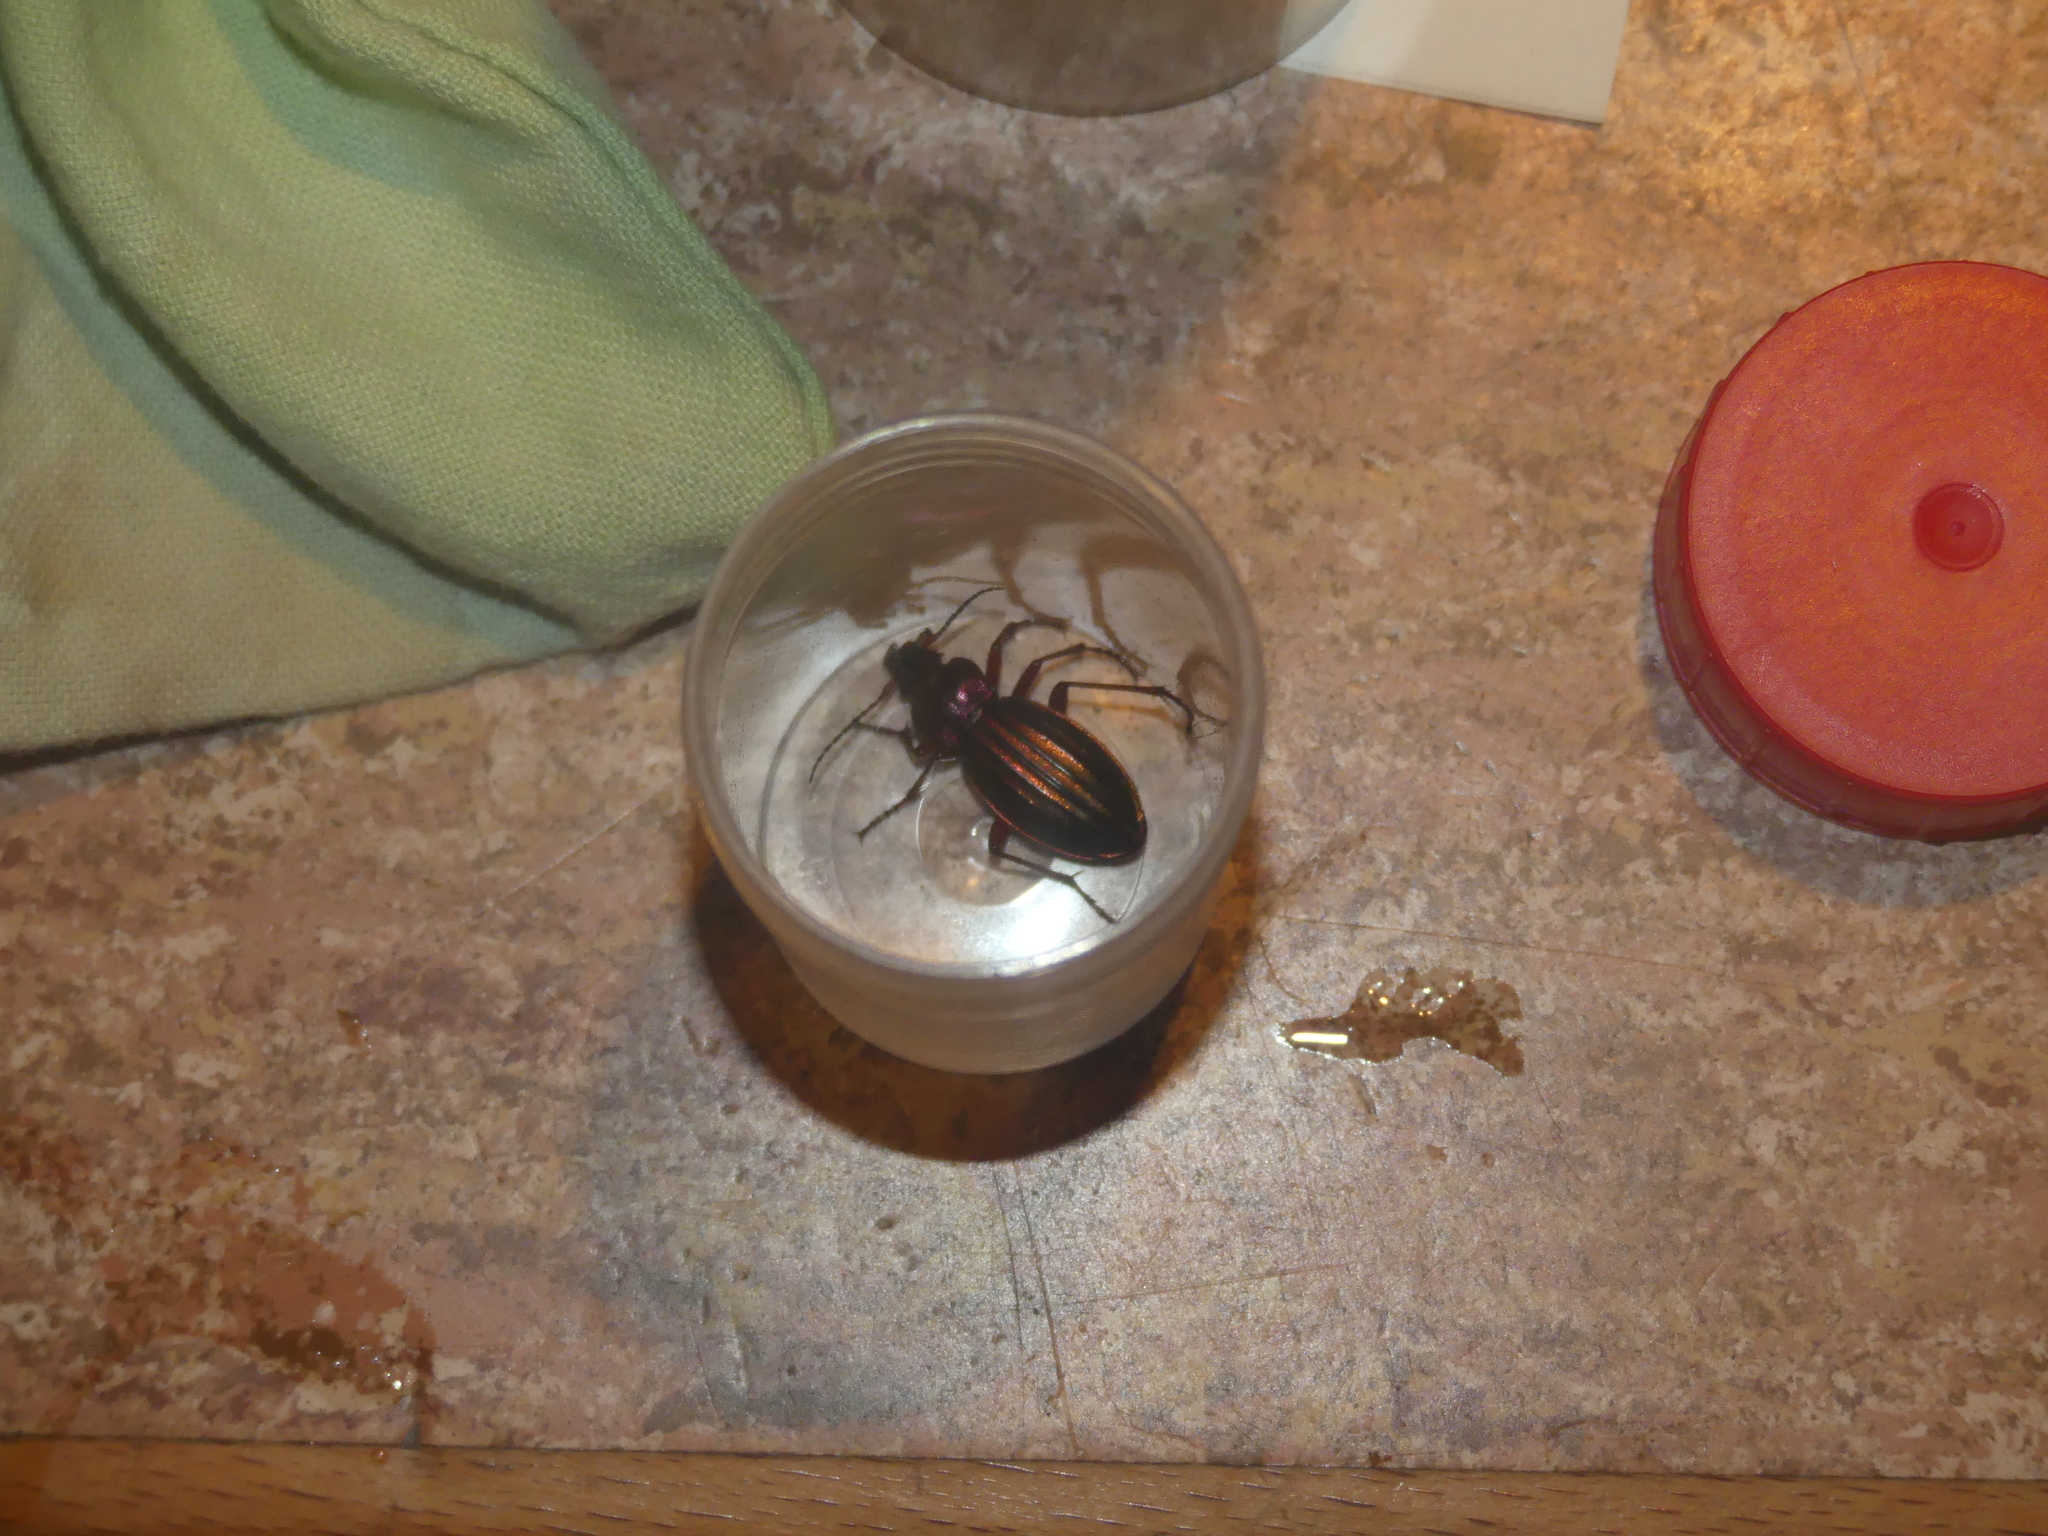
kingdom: Animalia
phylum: Arthropoda
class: Insecta
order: Coleoptera
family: Carabidae
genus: Carabus
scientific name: Carabus auronitens
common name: Carabus auronitens
